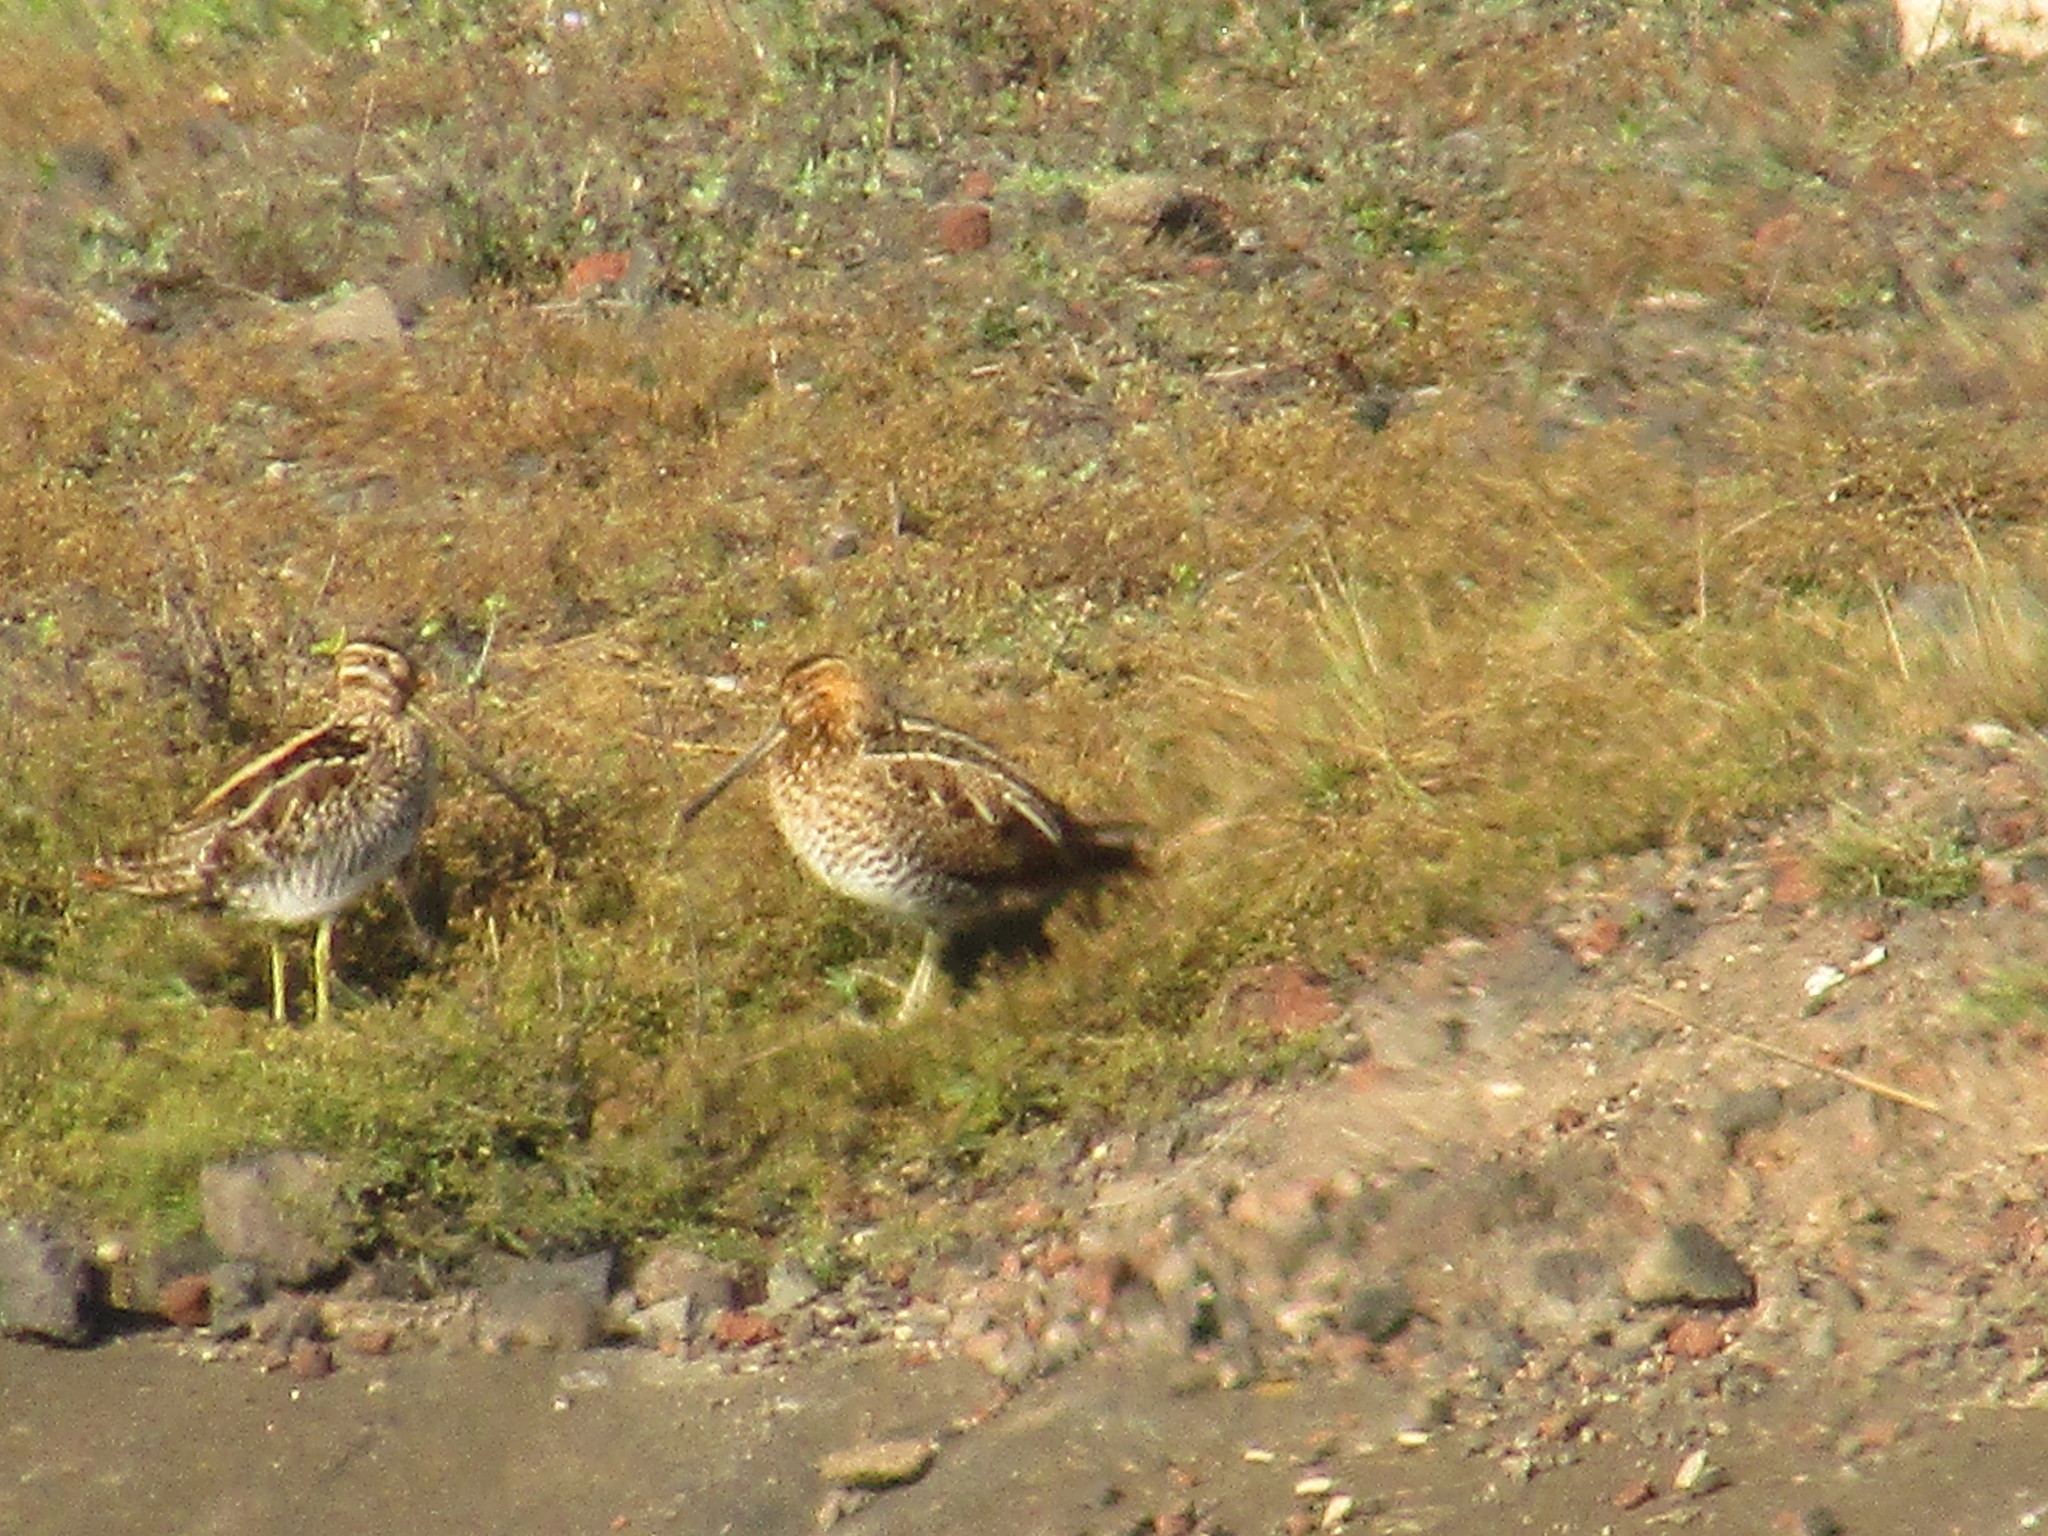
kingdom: Animalia
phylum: Chordata
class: Aves
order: Charadriiformes
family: Scolopacidae
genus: Gallinago
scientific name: Gallinago delicata
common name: Wilson's snipe
